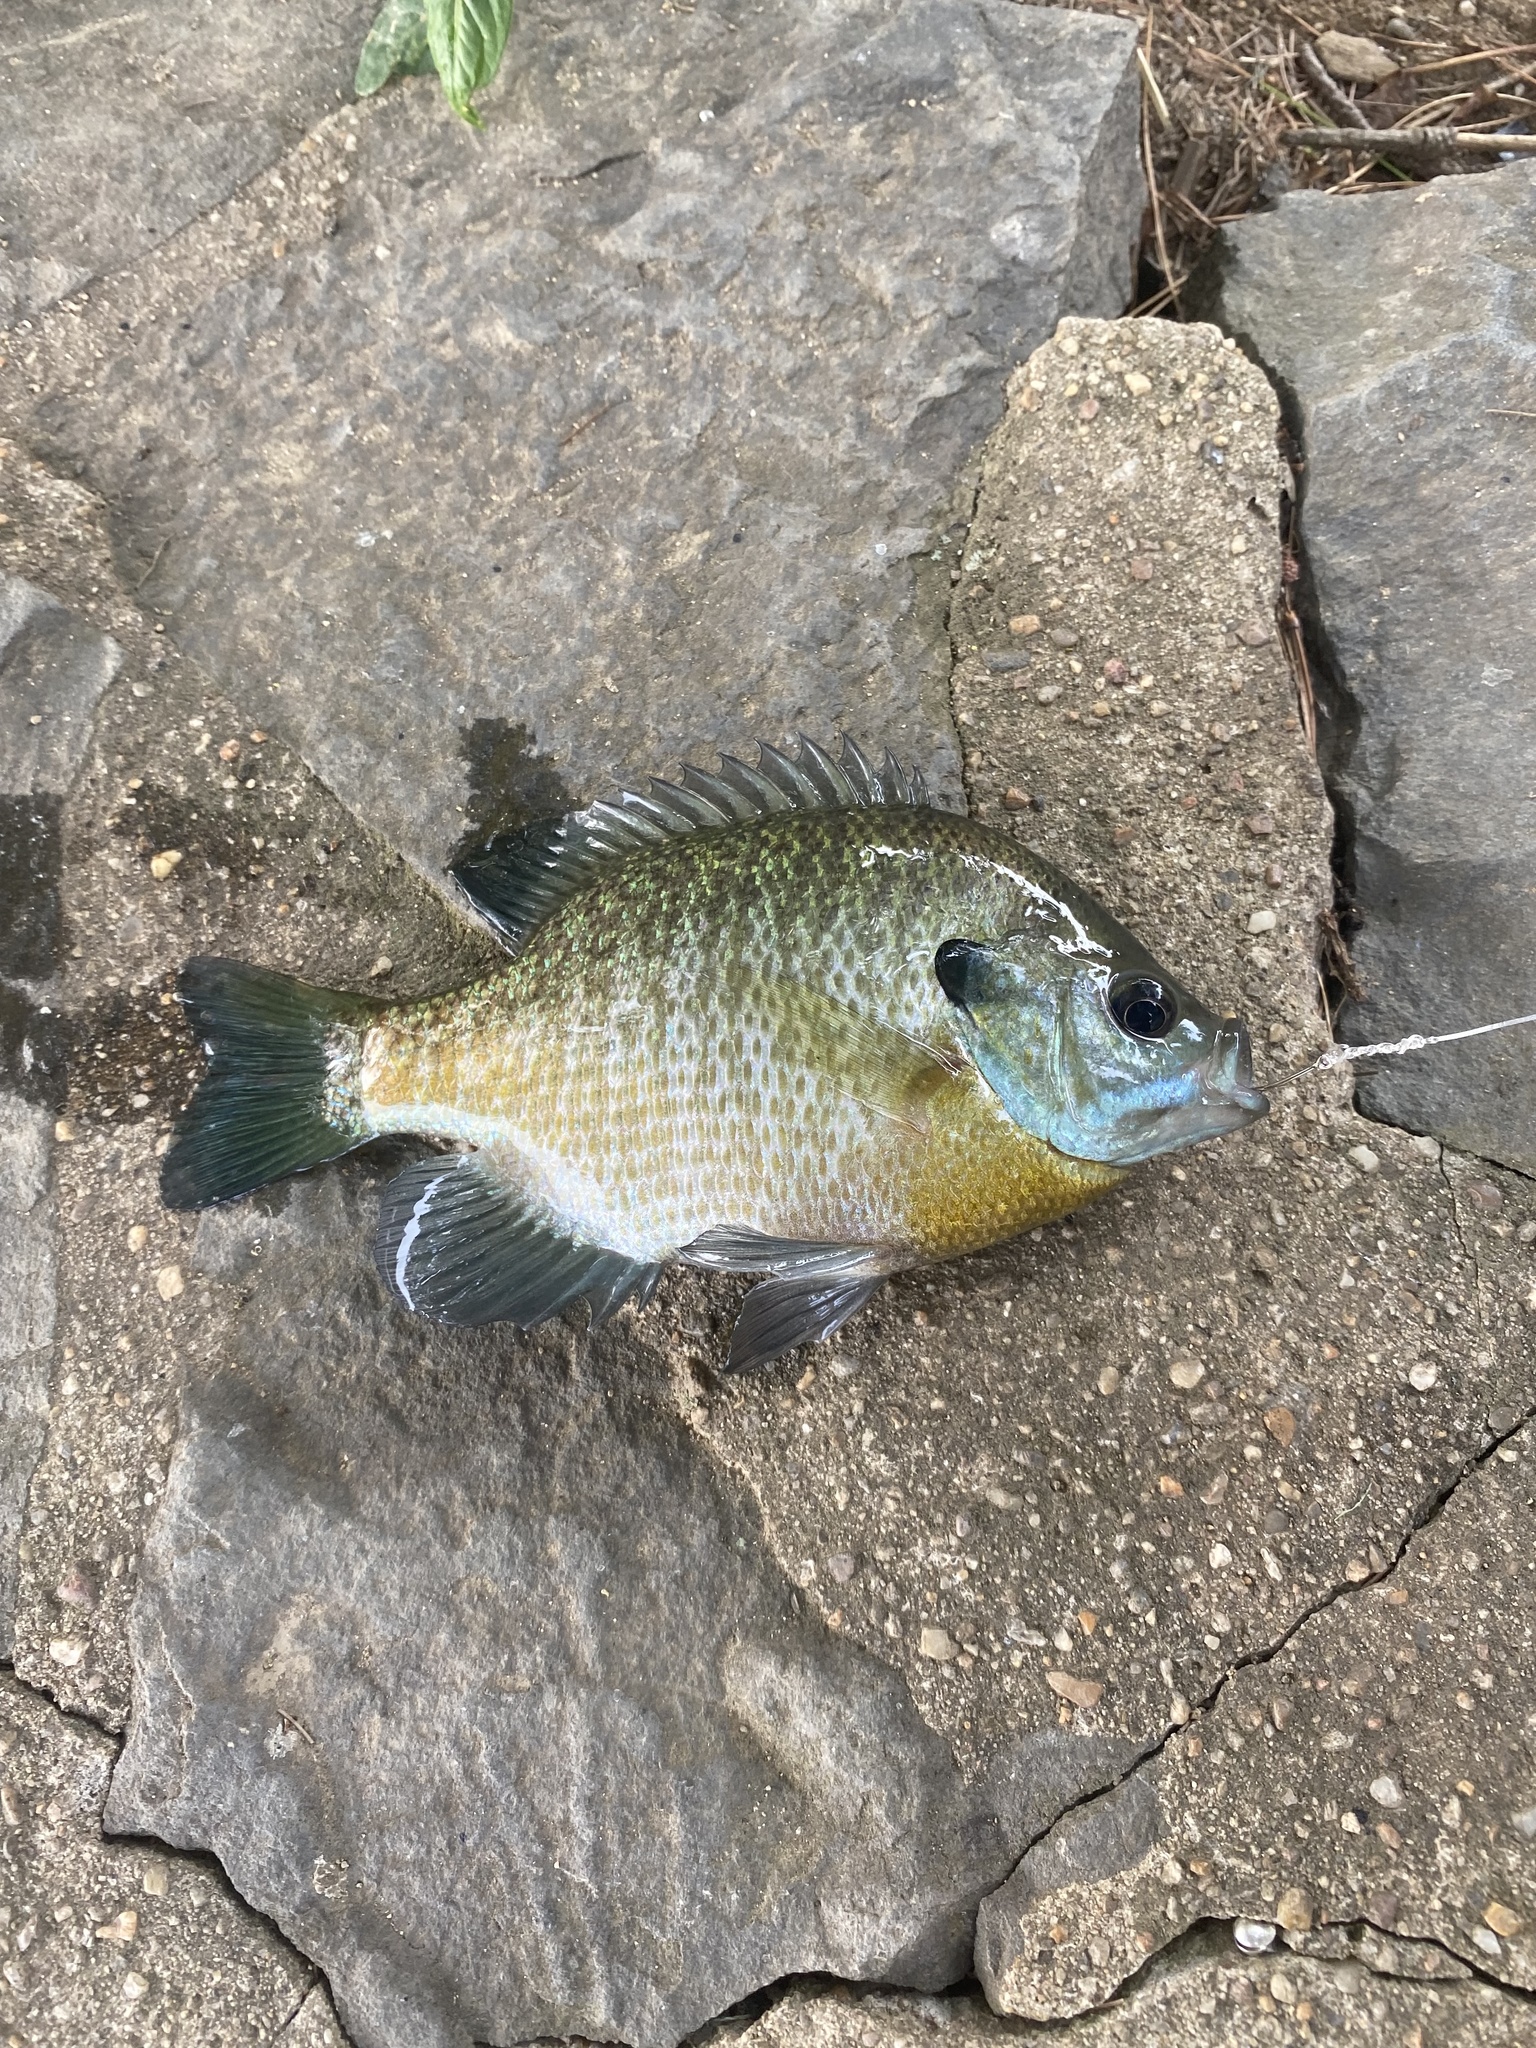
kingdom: Animalia
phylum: Chordata
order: Perciformes
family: Centrarchidae
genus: Lepomis
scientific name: Lepomis macrochirus
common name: Bluegill
